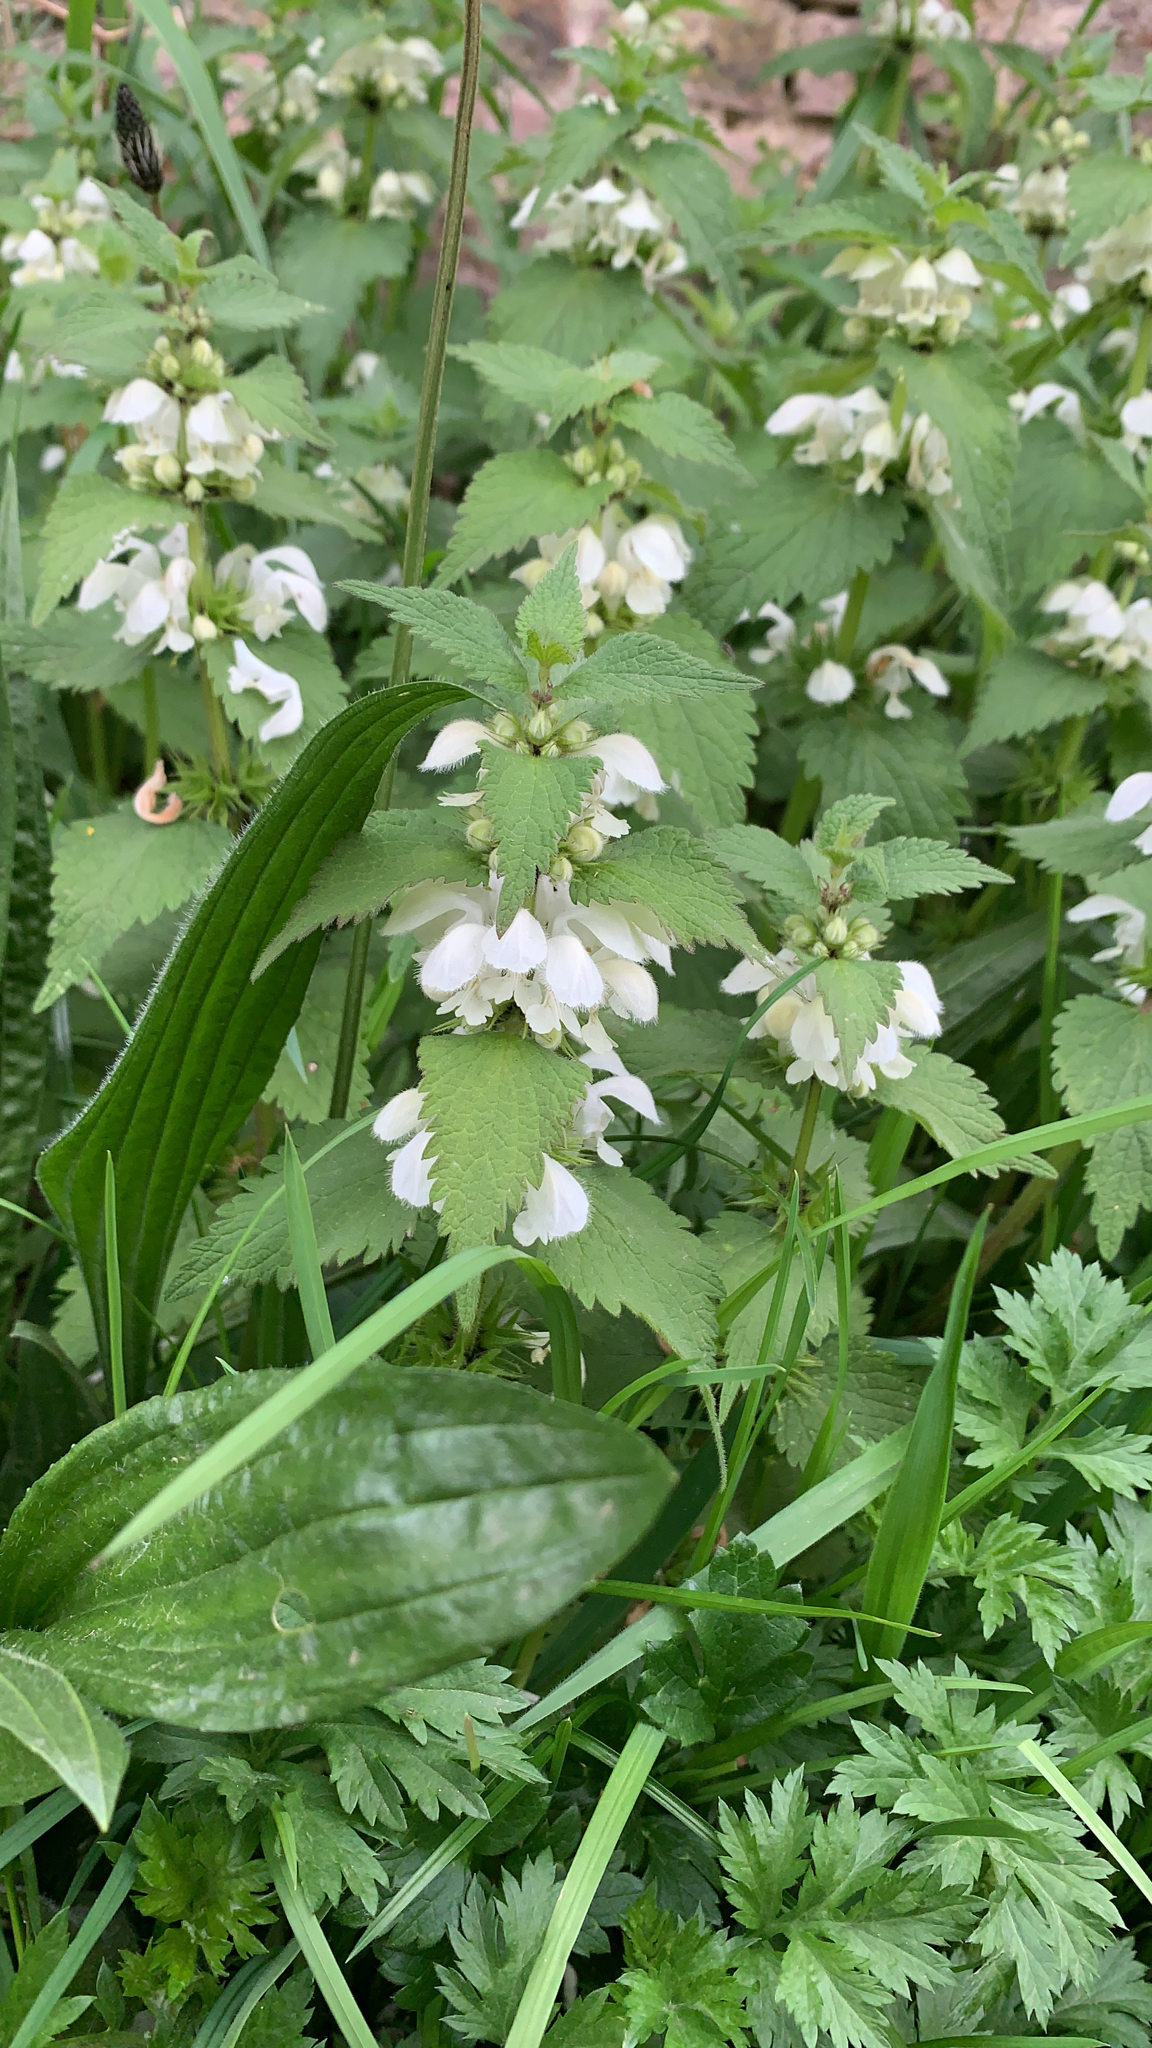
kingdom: Plantae
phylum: Tracheophyta
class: Magnoliopsida
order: Lamiales
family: Lamiaceae
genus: Lamium
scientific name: Lamium album
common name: White dead-nettle
